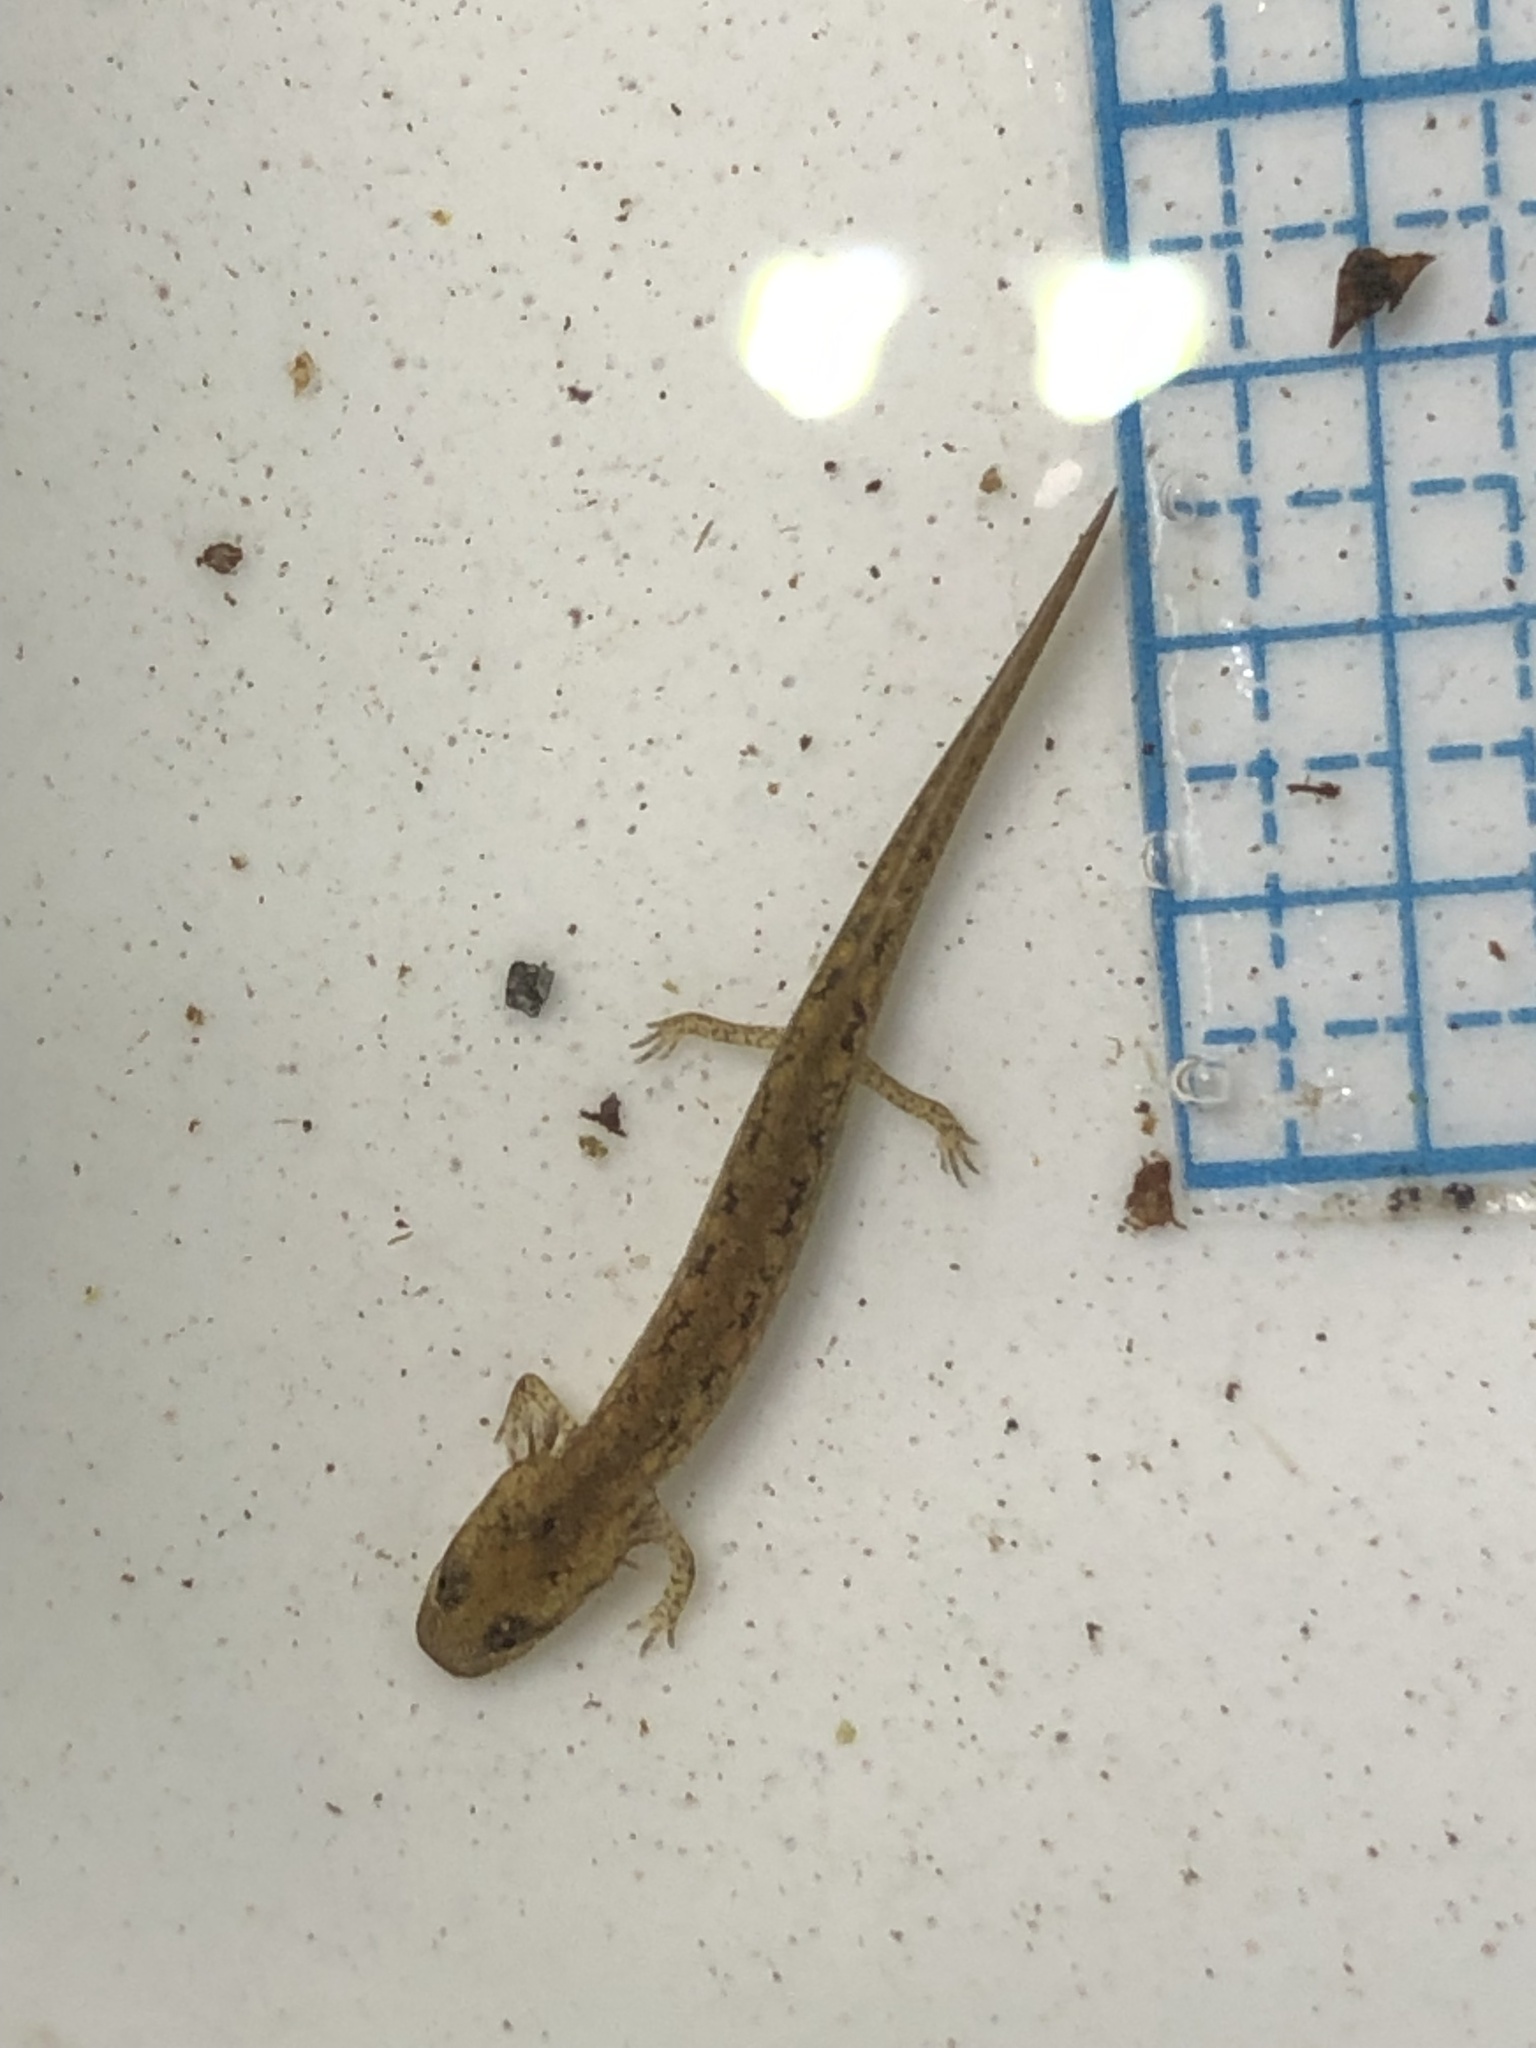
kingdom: Animalia
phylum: Chordata
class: Amphibia
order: Caudata
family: Plethodontidae
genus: Eurycea
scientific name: Eurycea bislineata
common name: Northern two-lined salamander
